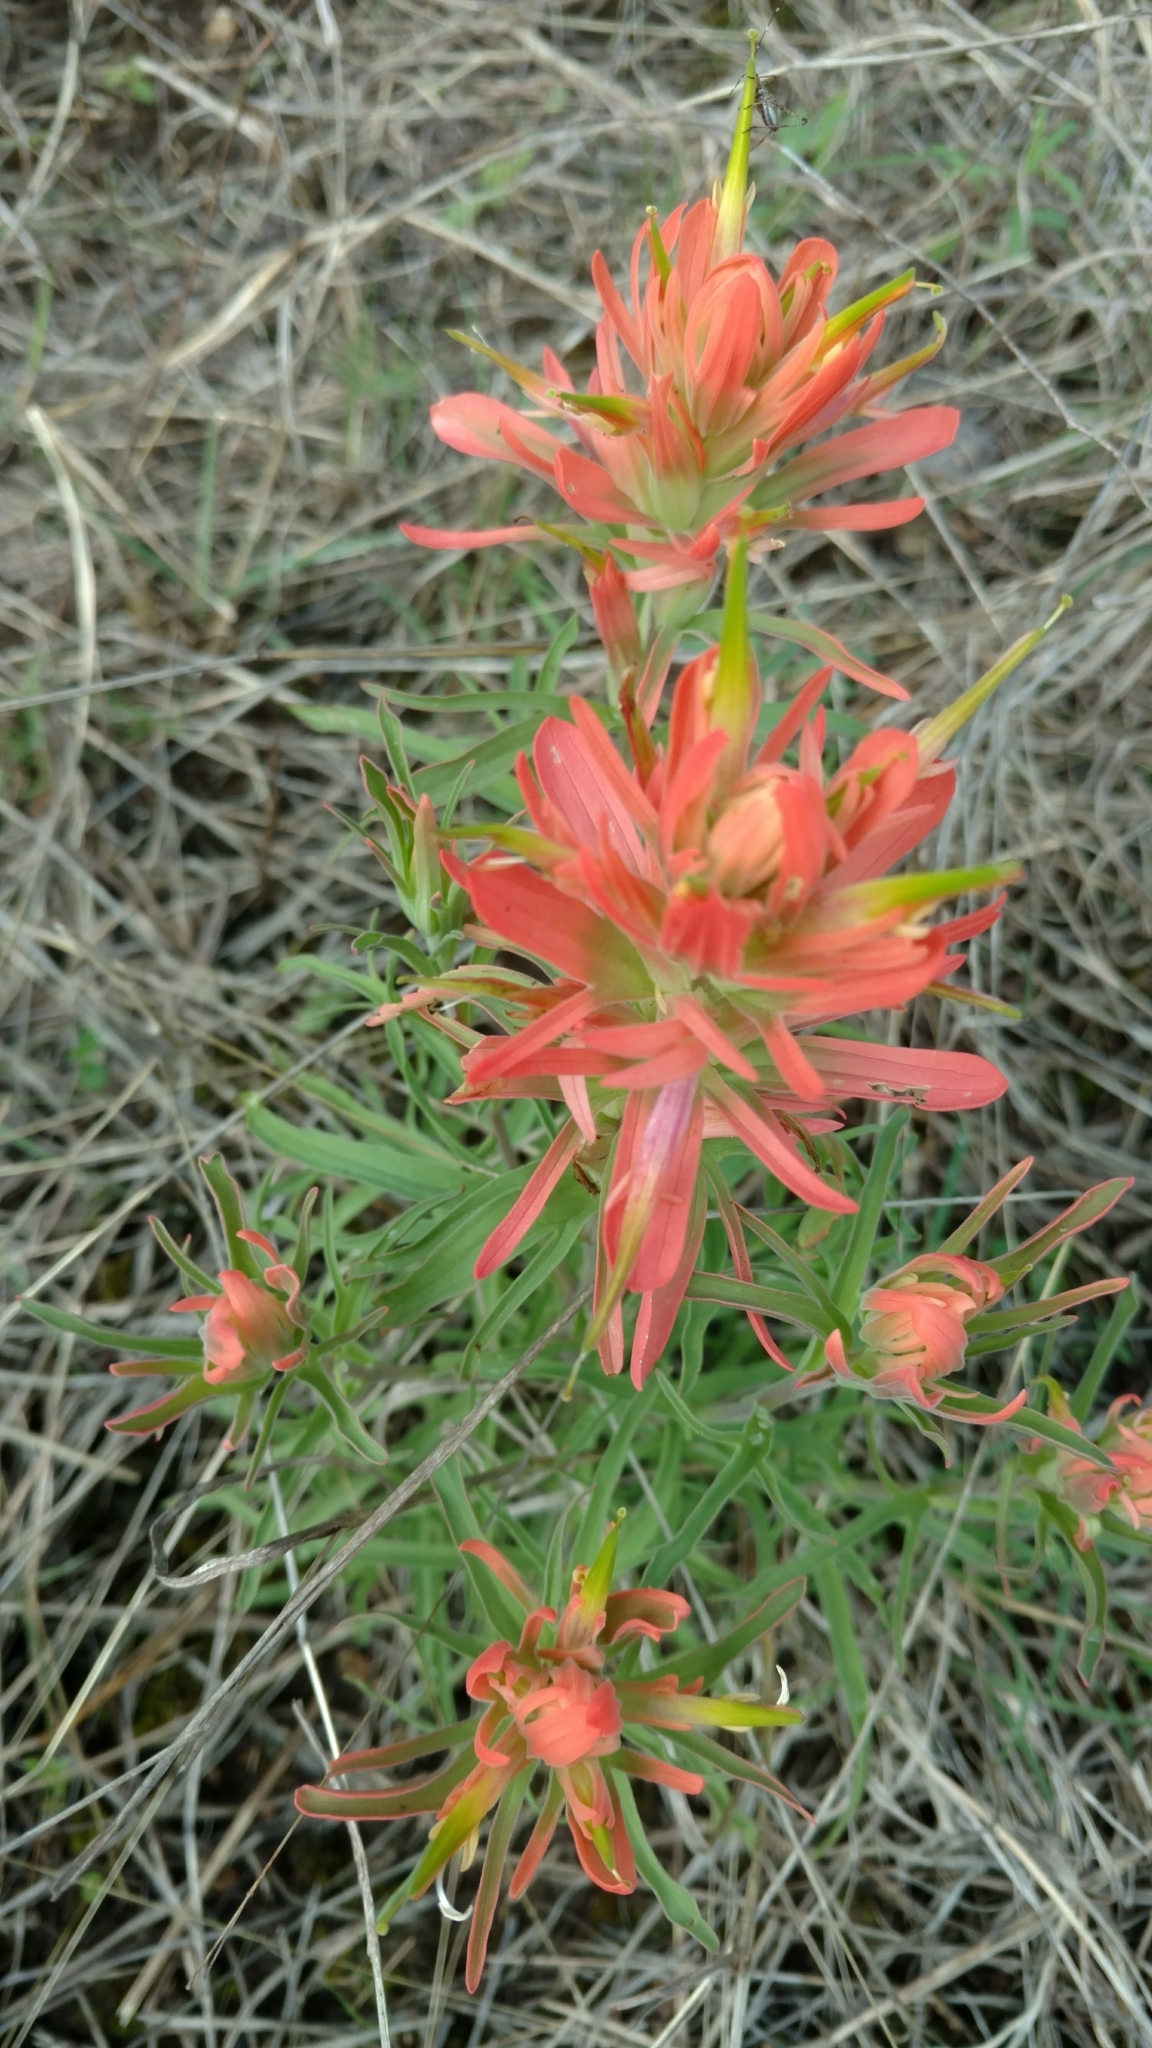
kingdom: Plantae
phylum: Tracheophyta
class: Magnoliopsida
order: Lamiales
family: Orobanchaceae
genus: Castilleja
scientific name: Castilleja lindheimeri
